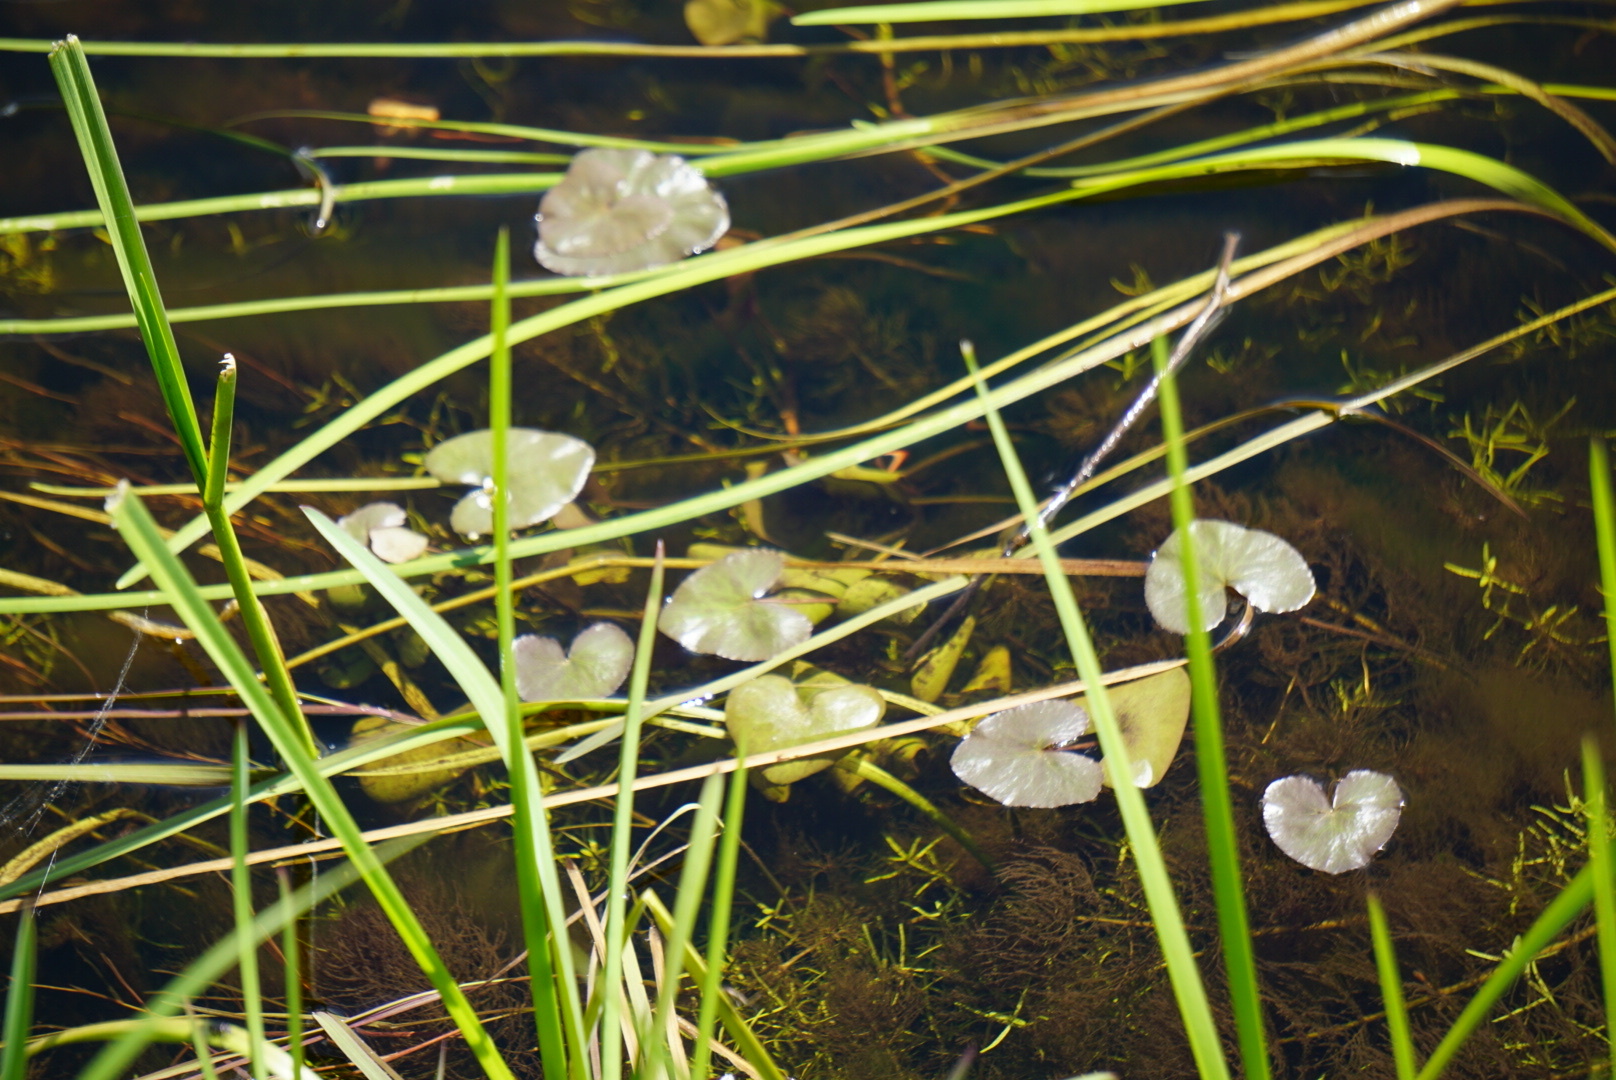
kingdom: Plantae
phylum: Tracheophyta
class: Magnoliopsida
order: Ranunculales
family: Ranunculaceae
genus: Caltha
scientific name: Caltha natans
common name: Floating marsh marigold
